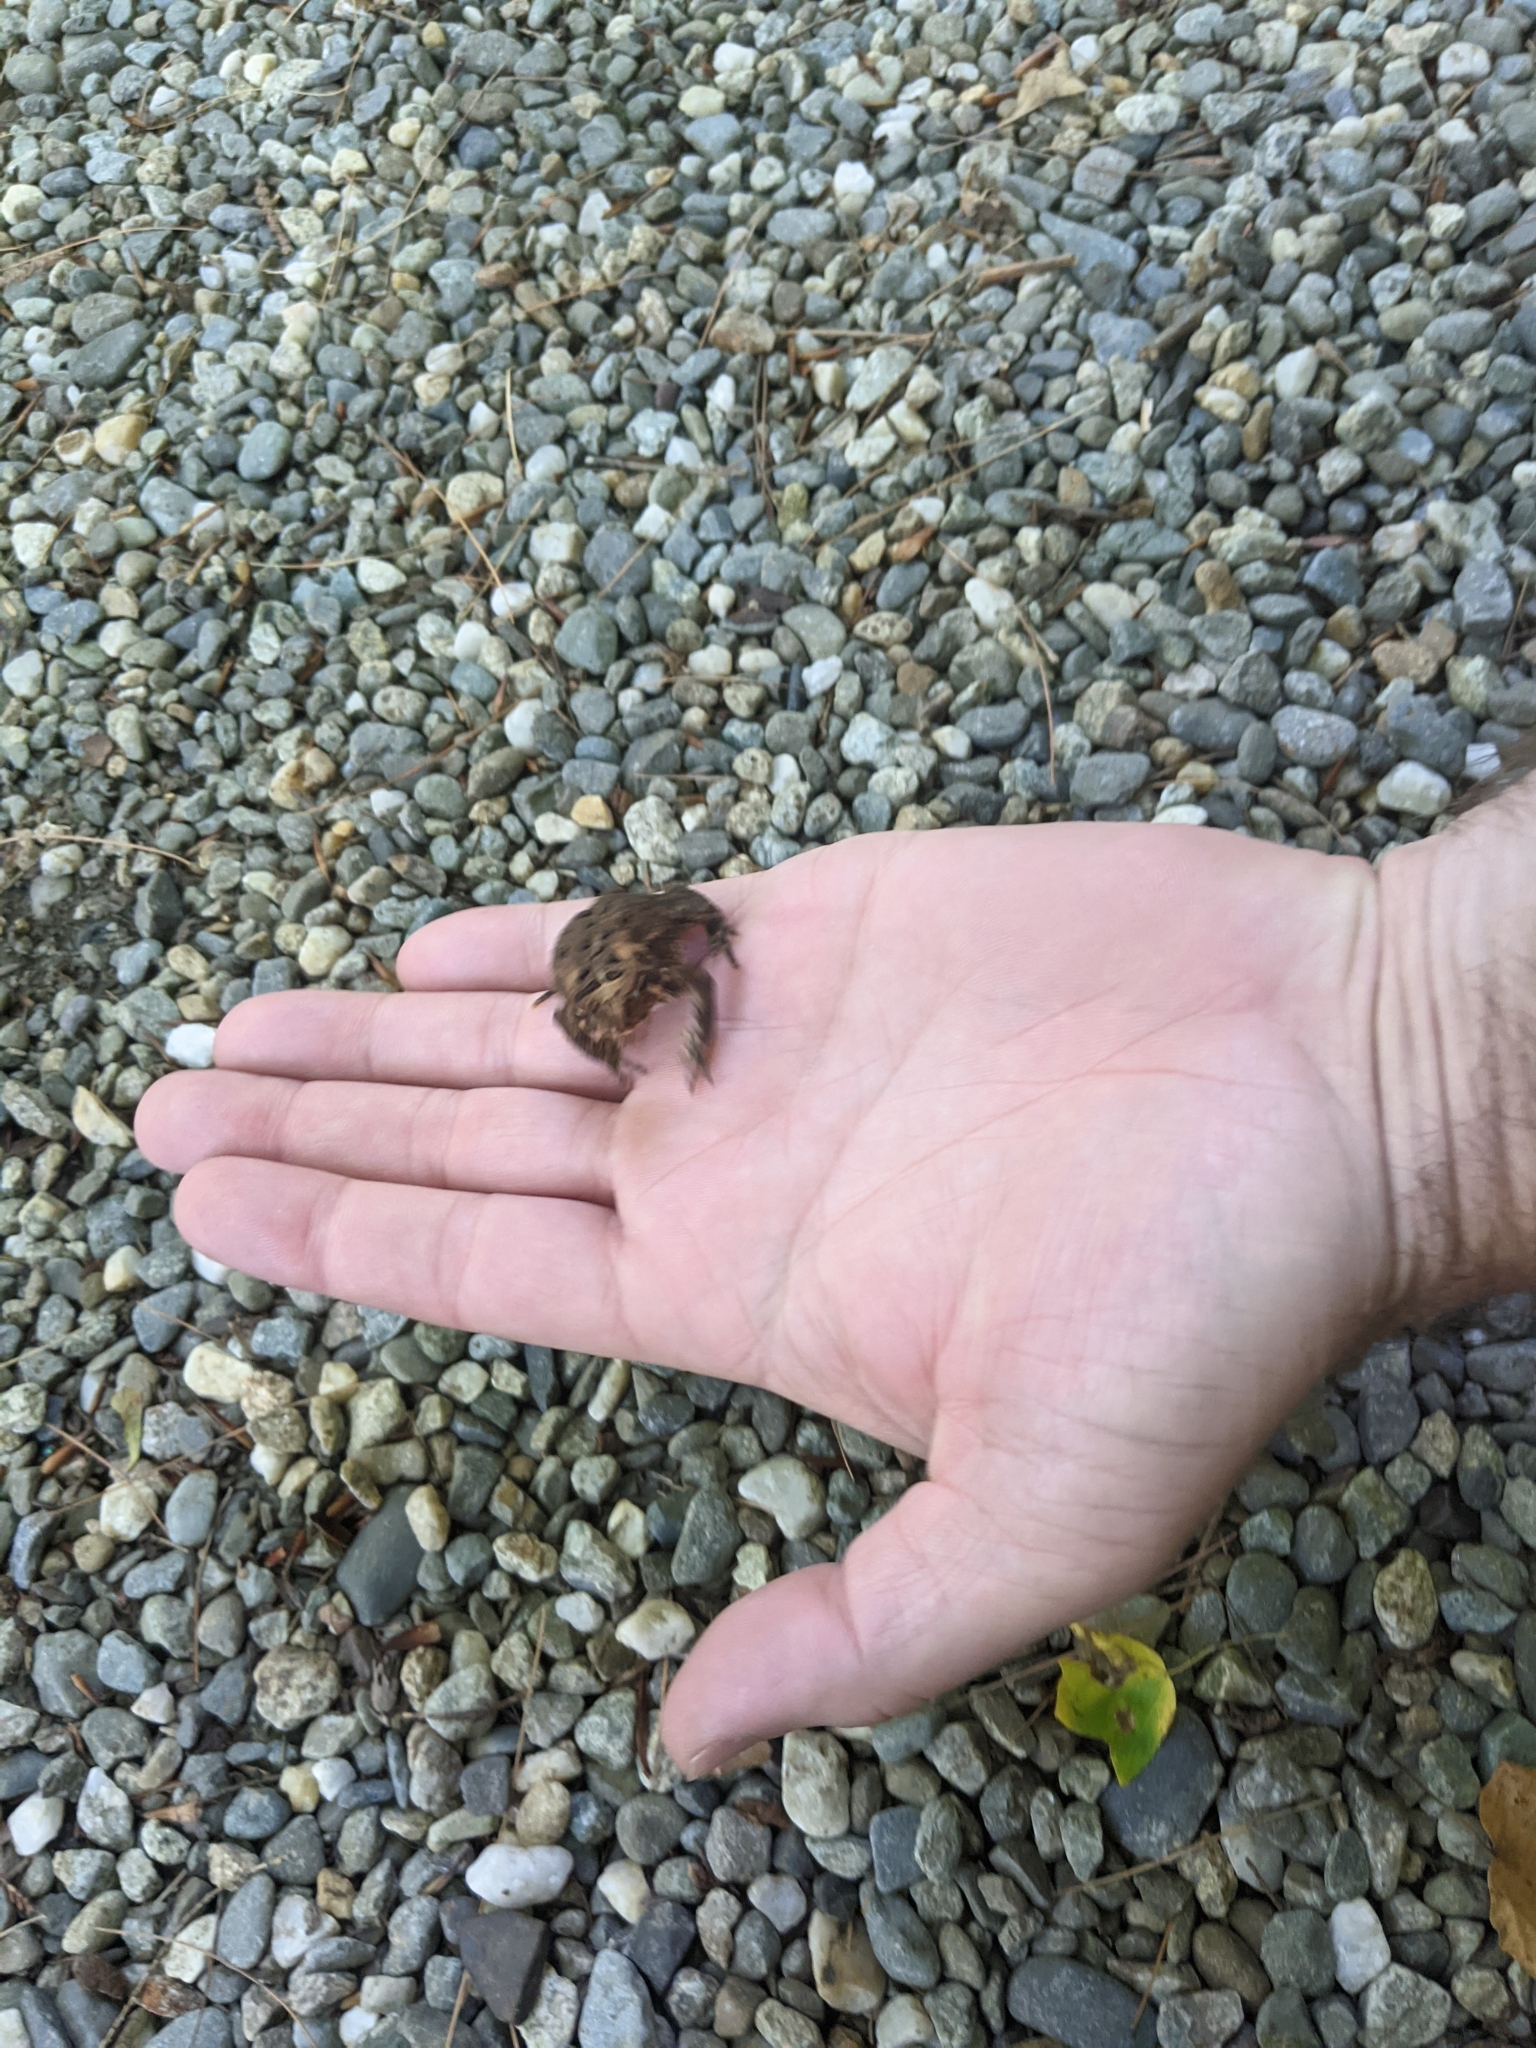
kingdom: Animalia
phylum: Chordata
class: Amphibia
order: Anura
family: Bufonidae
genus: Anaxyrus
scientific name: Anaxyrus americanus
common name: American toad
